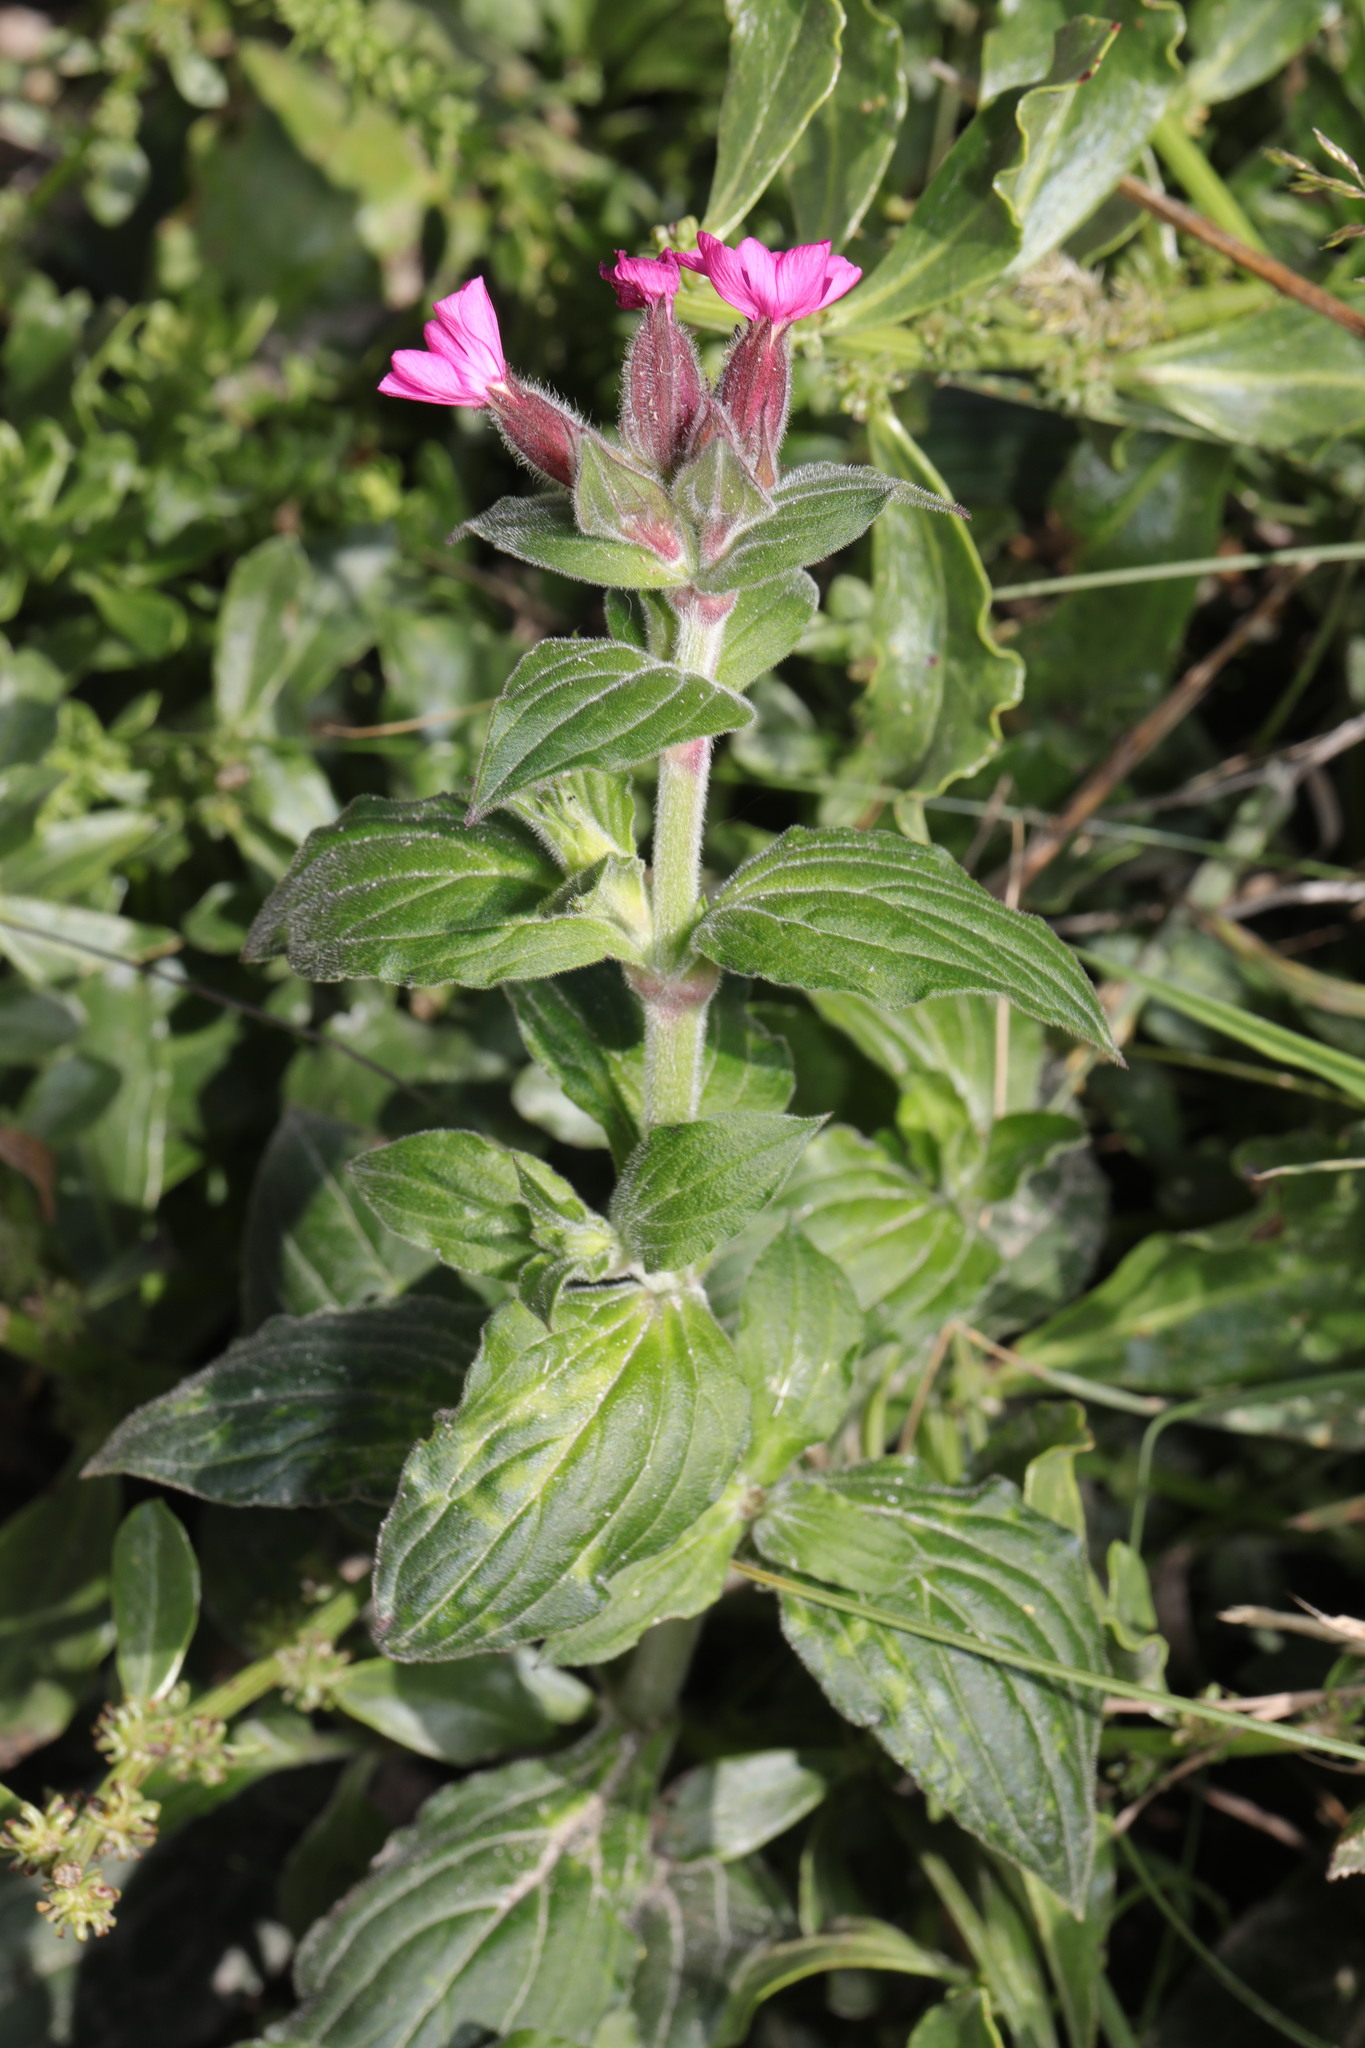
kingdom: Plantae
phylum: Tracheophyta
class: Magnoliopsida
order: Caryophyllales
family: Caryophyllaceae
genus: Silene
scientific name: Silene dioica
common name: Red campion
